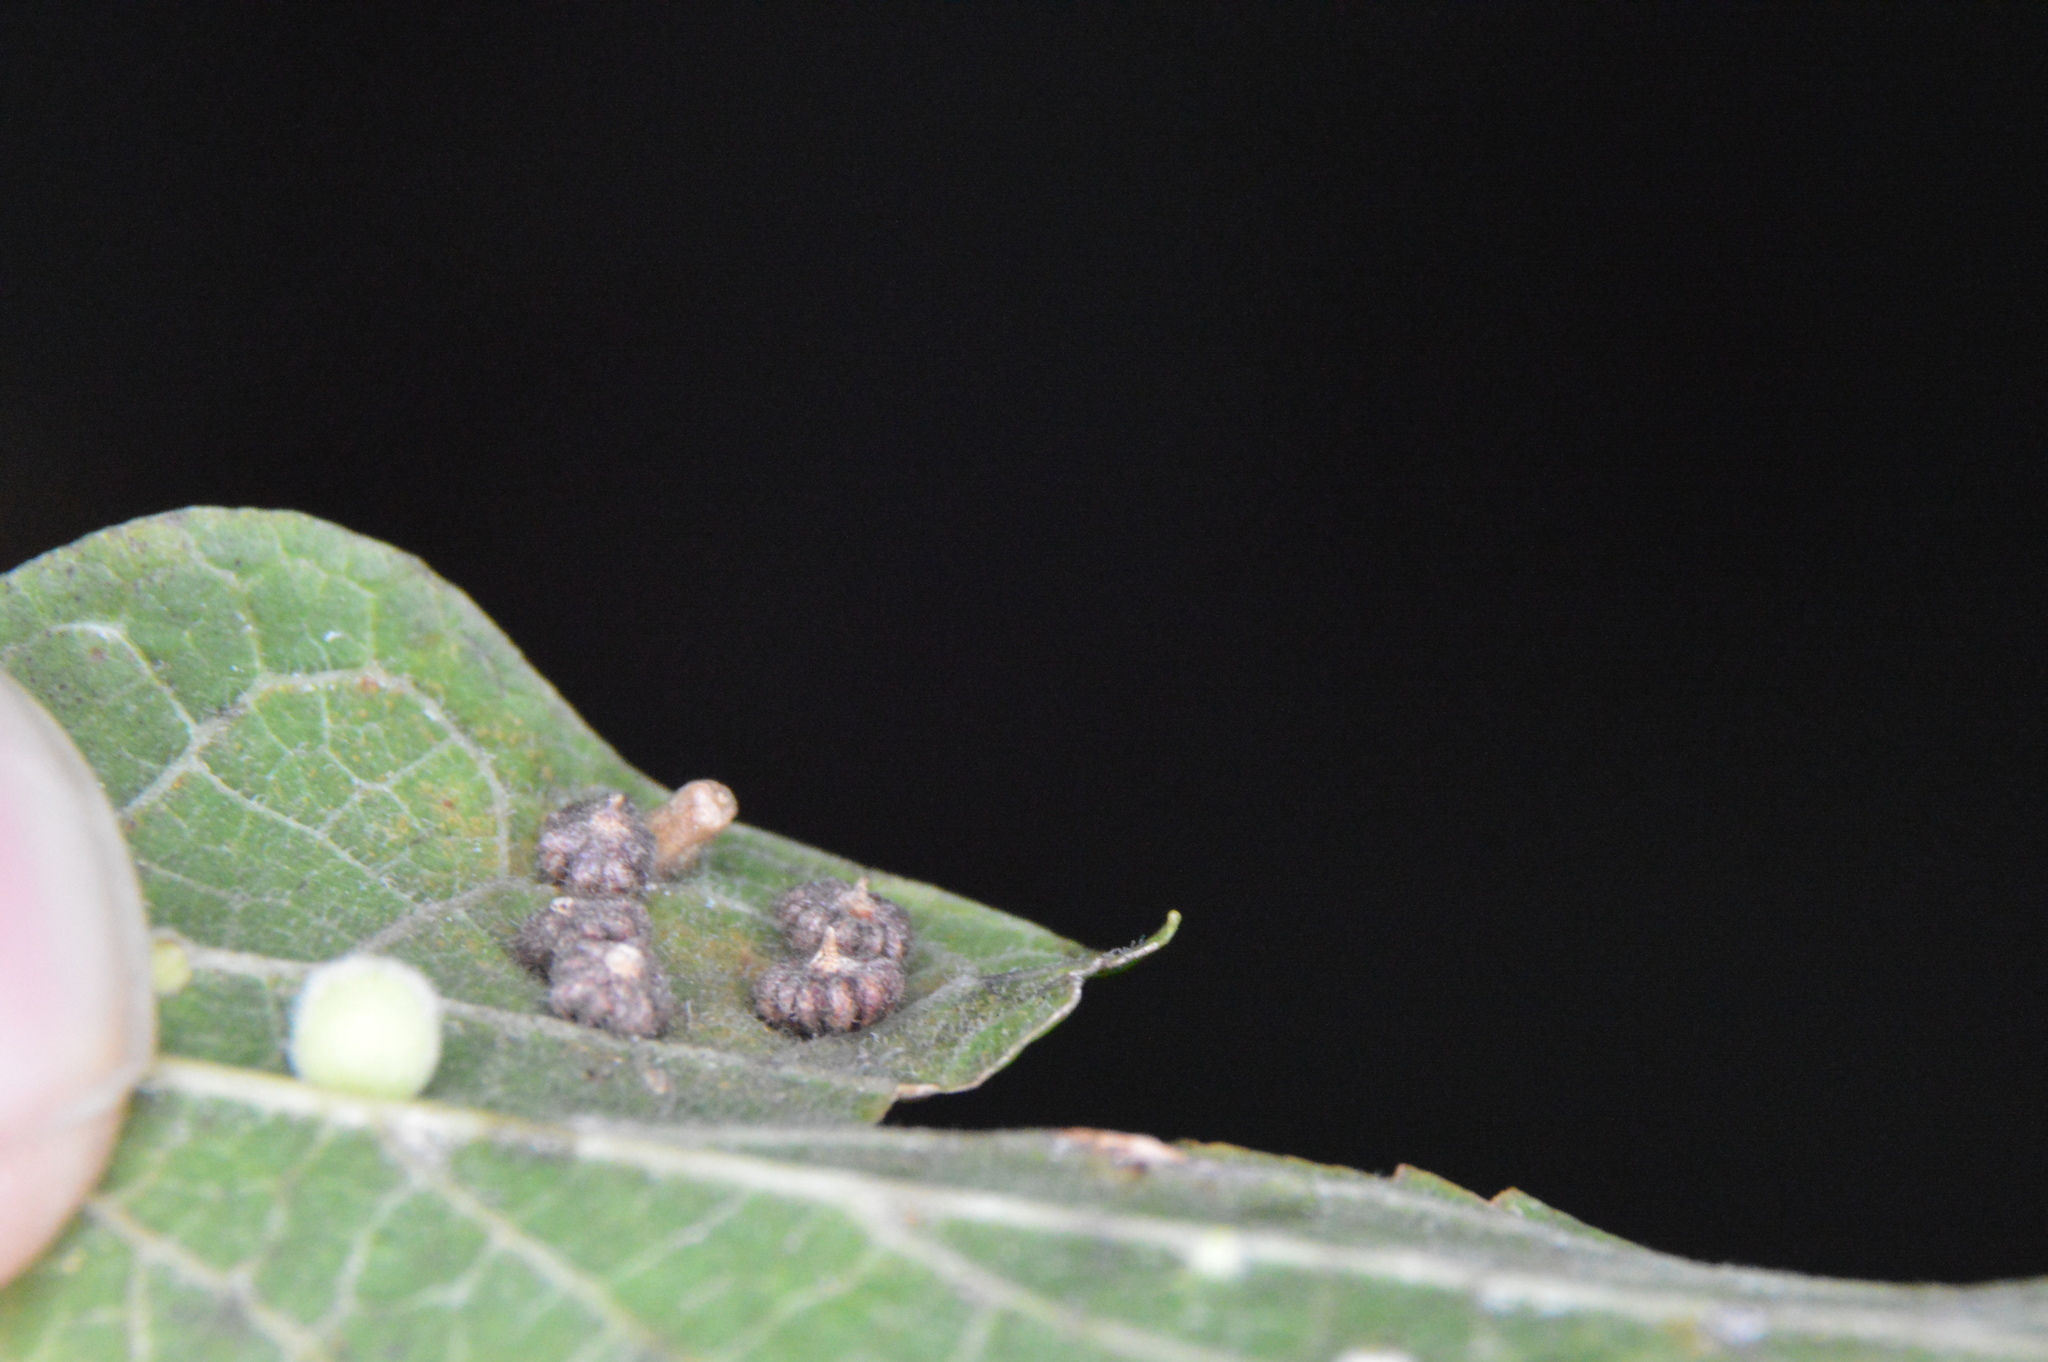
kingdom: Animalia
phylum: Arthropoda
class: Insecta
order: Diptera
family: Cecidomyiidae
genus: Celticecis
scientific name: Celticecis capsularis
